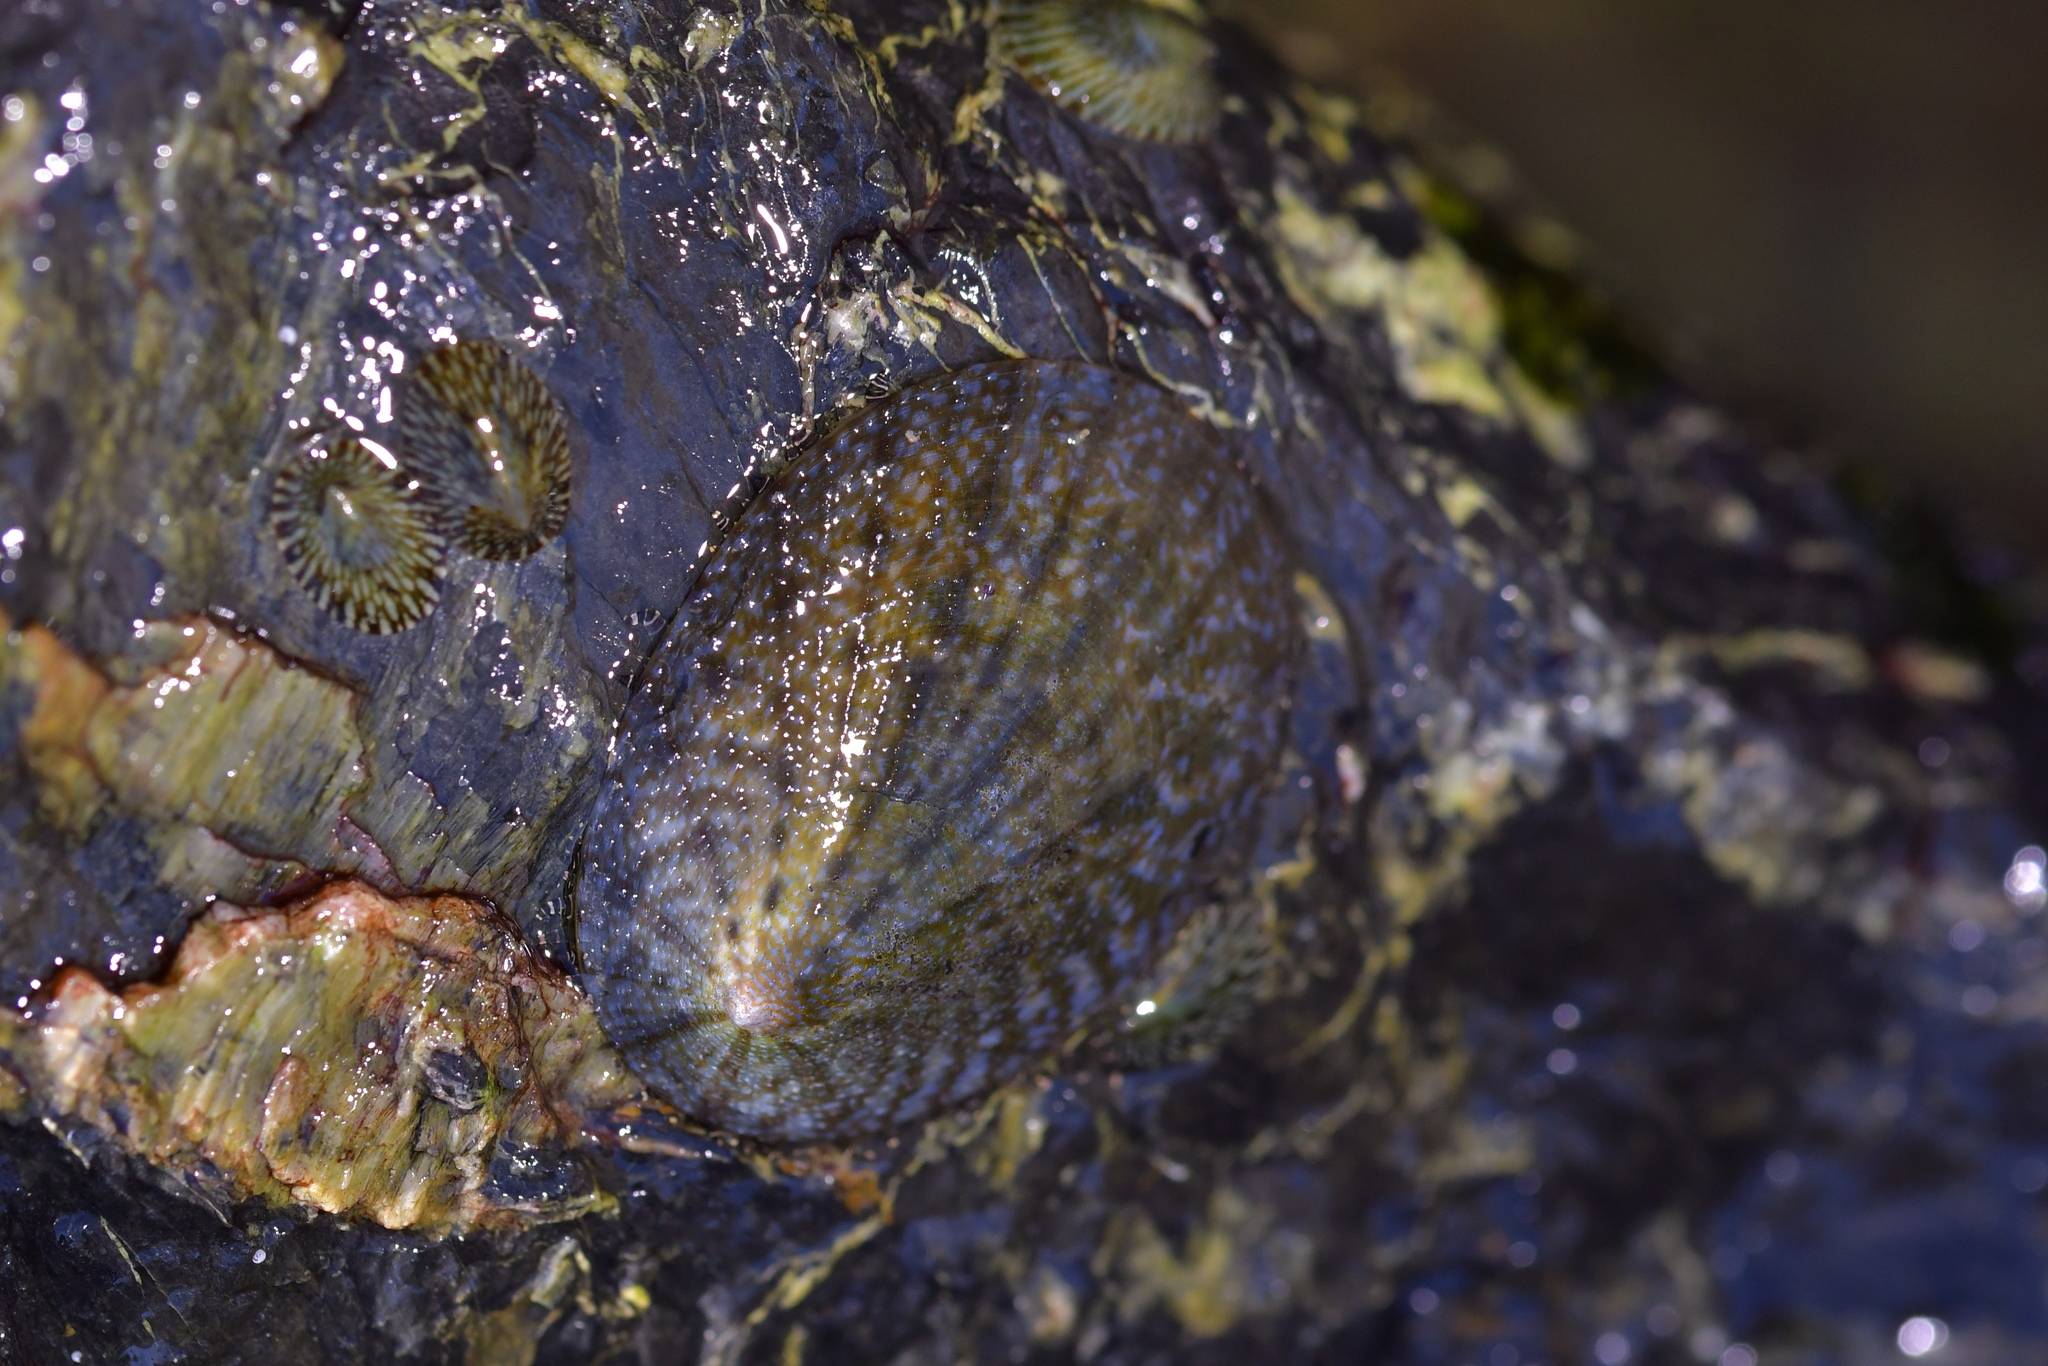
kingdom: Animalia
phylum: Mollusca
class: Gastropoda
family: Nacellidae
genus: Cellana
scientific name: Cellana radians
